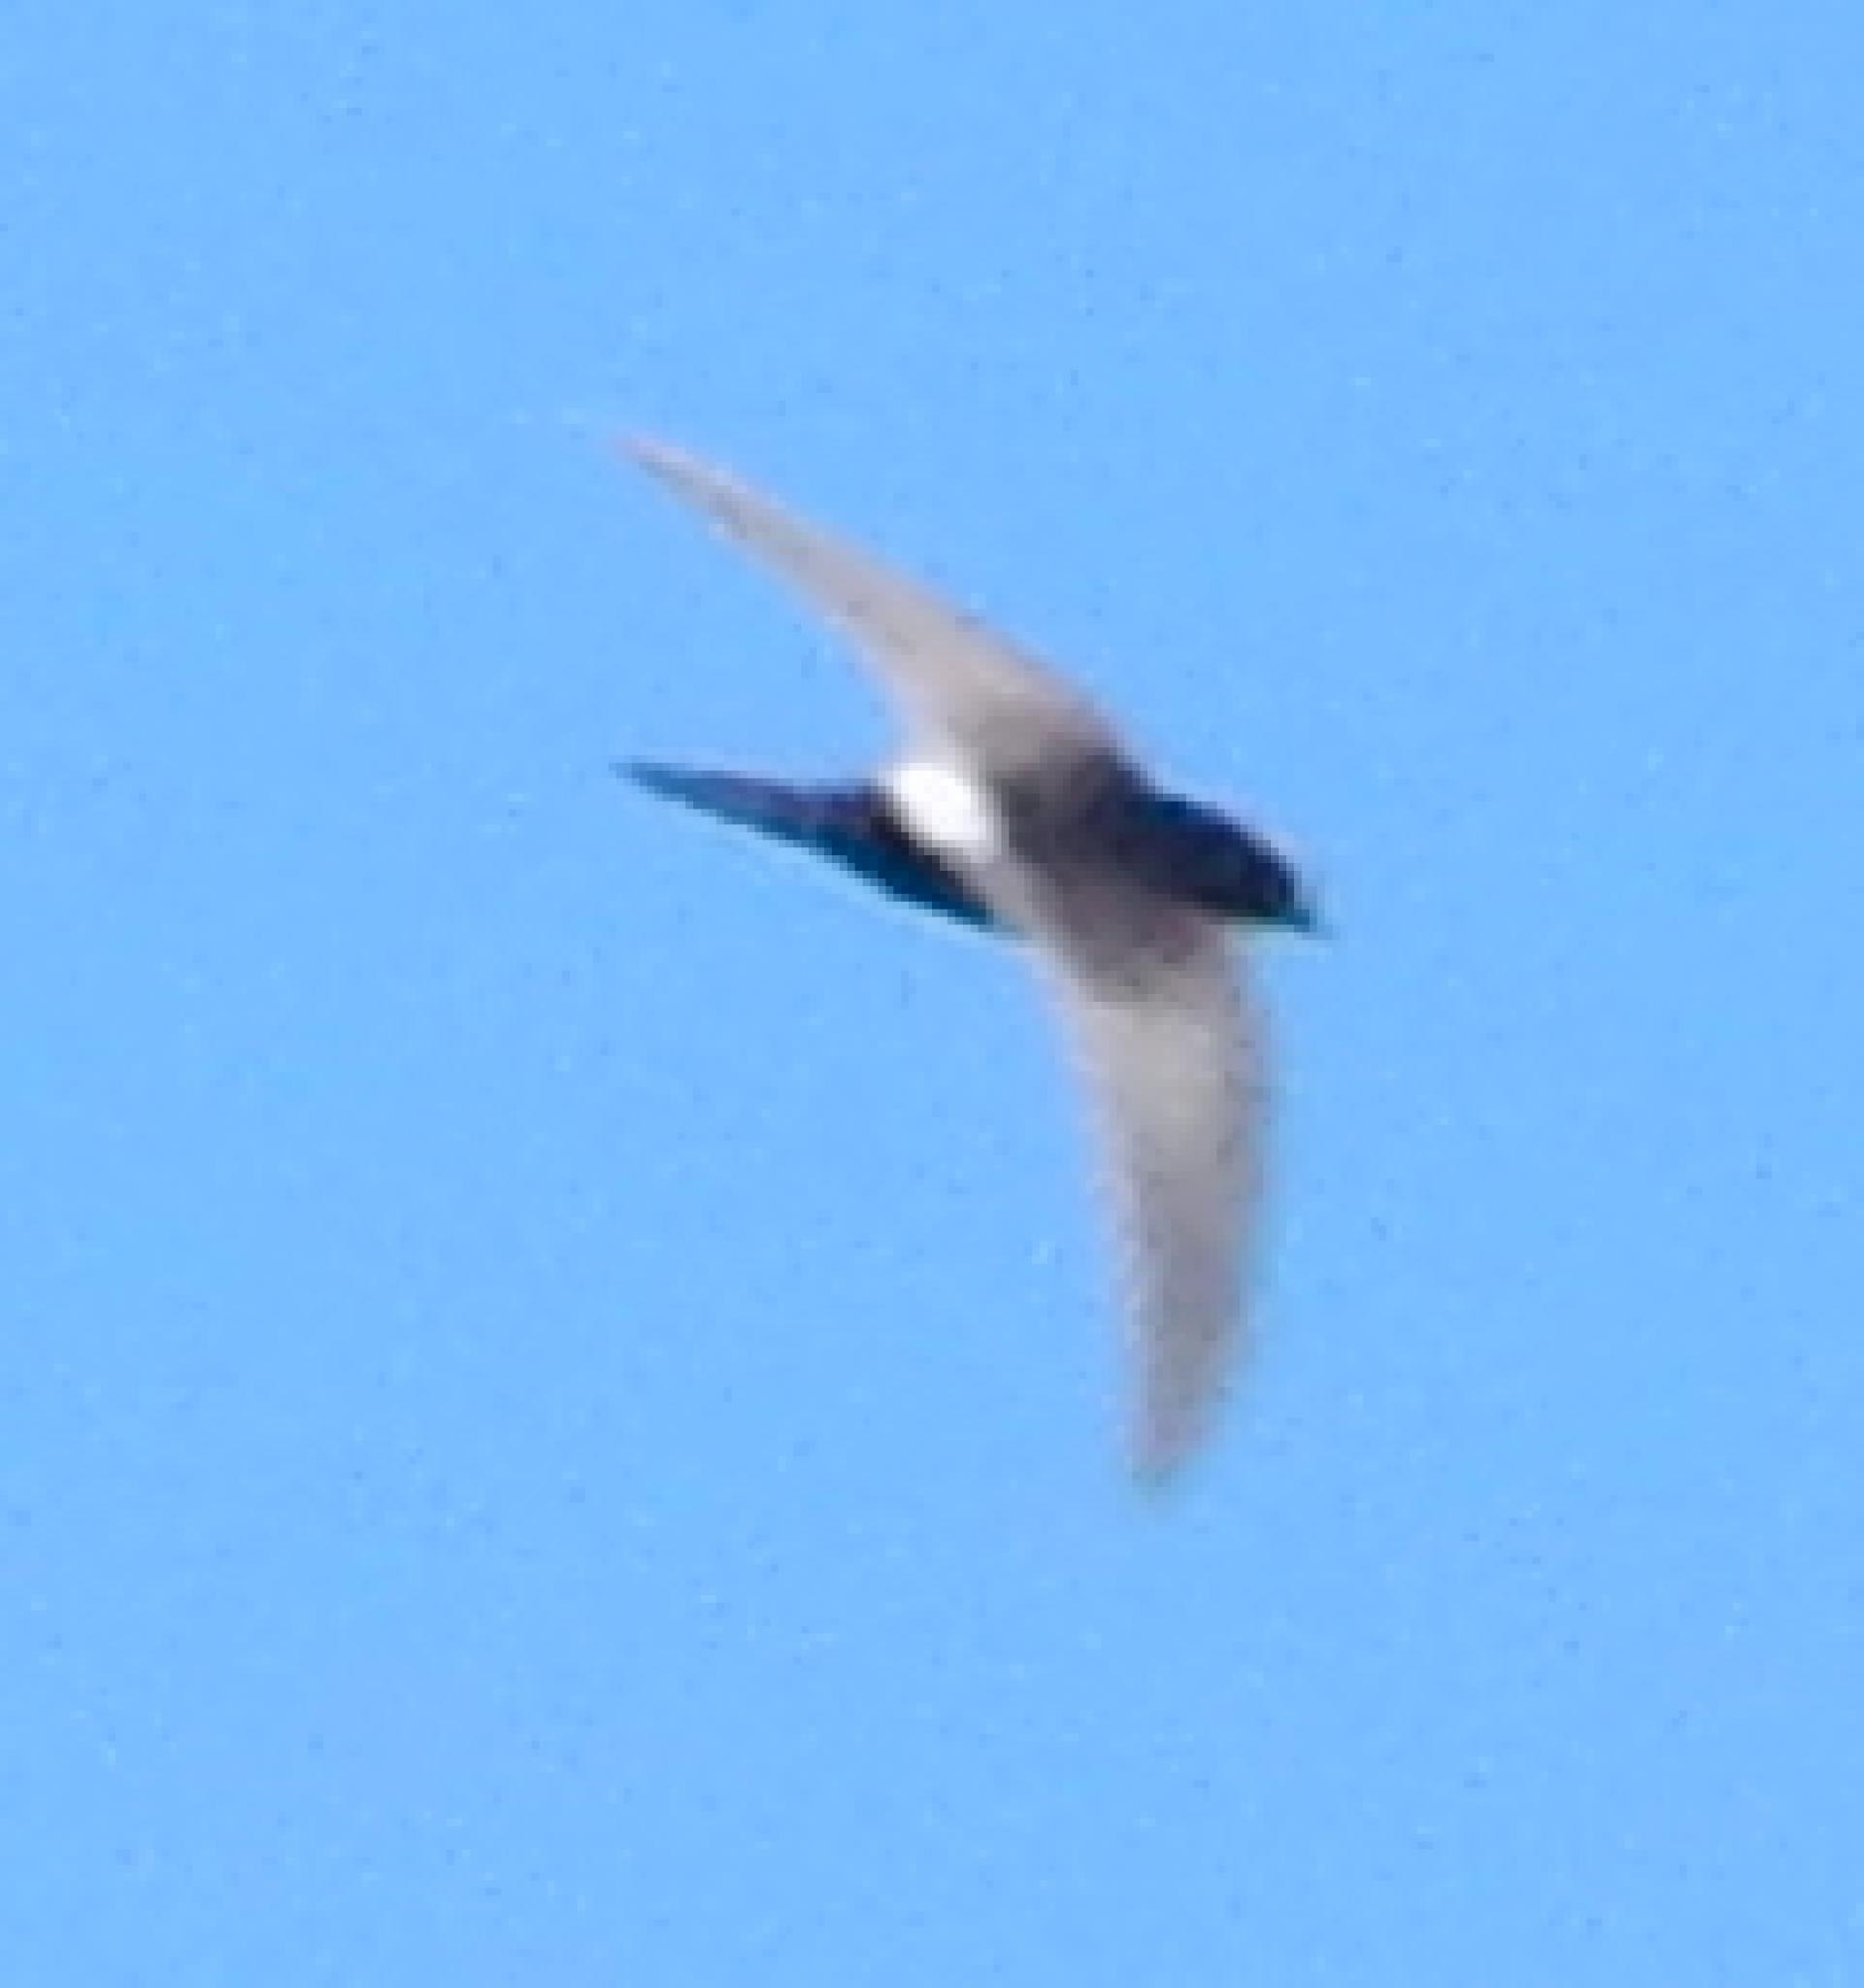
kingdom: Animalia
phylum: Chordata
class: Aves
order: Apodiformes
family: Apodidae
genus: Apus
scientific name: Apus caffer
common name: White-rumped swift
